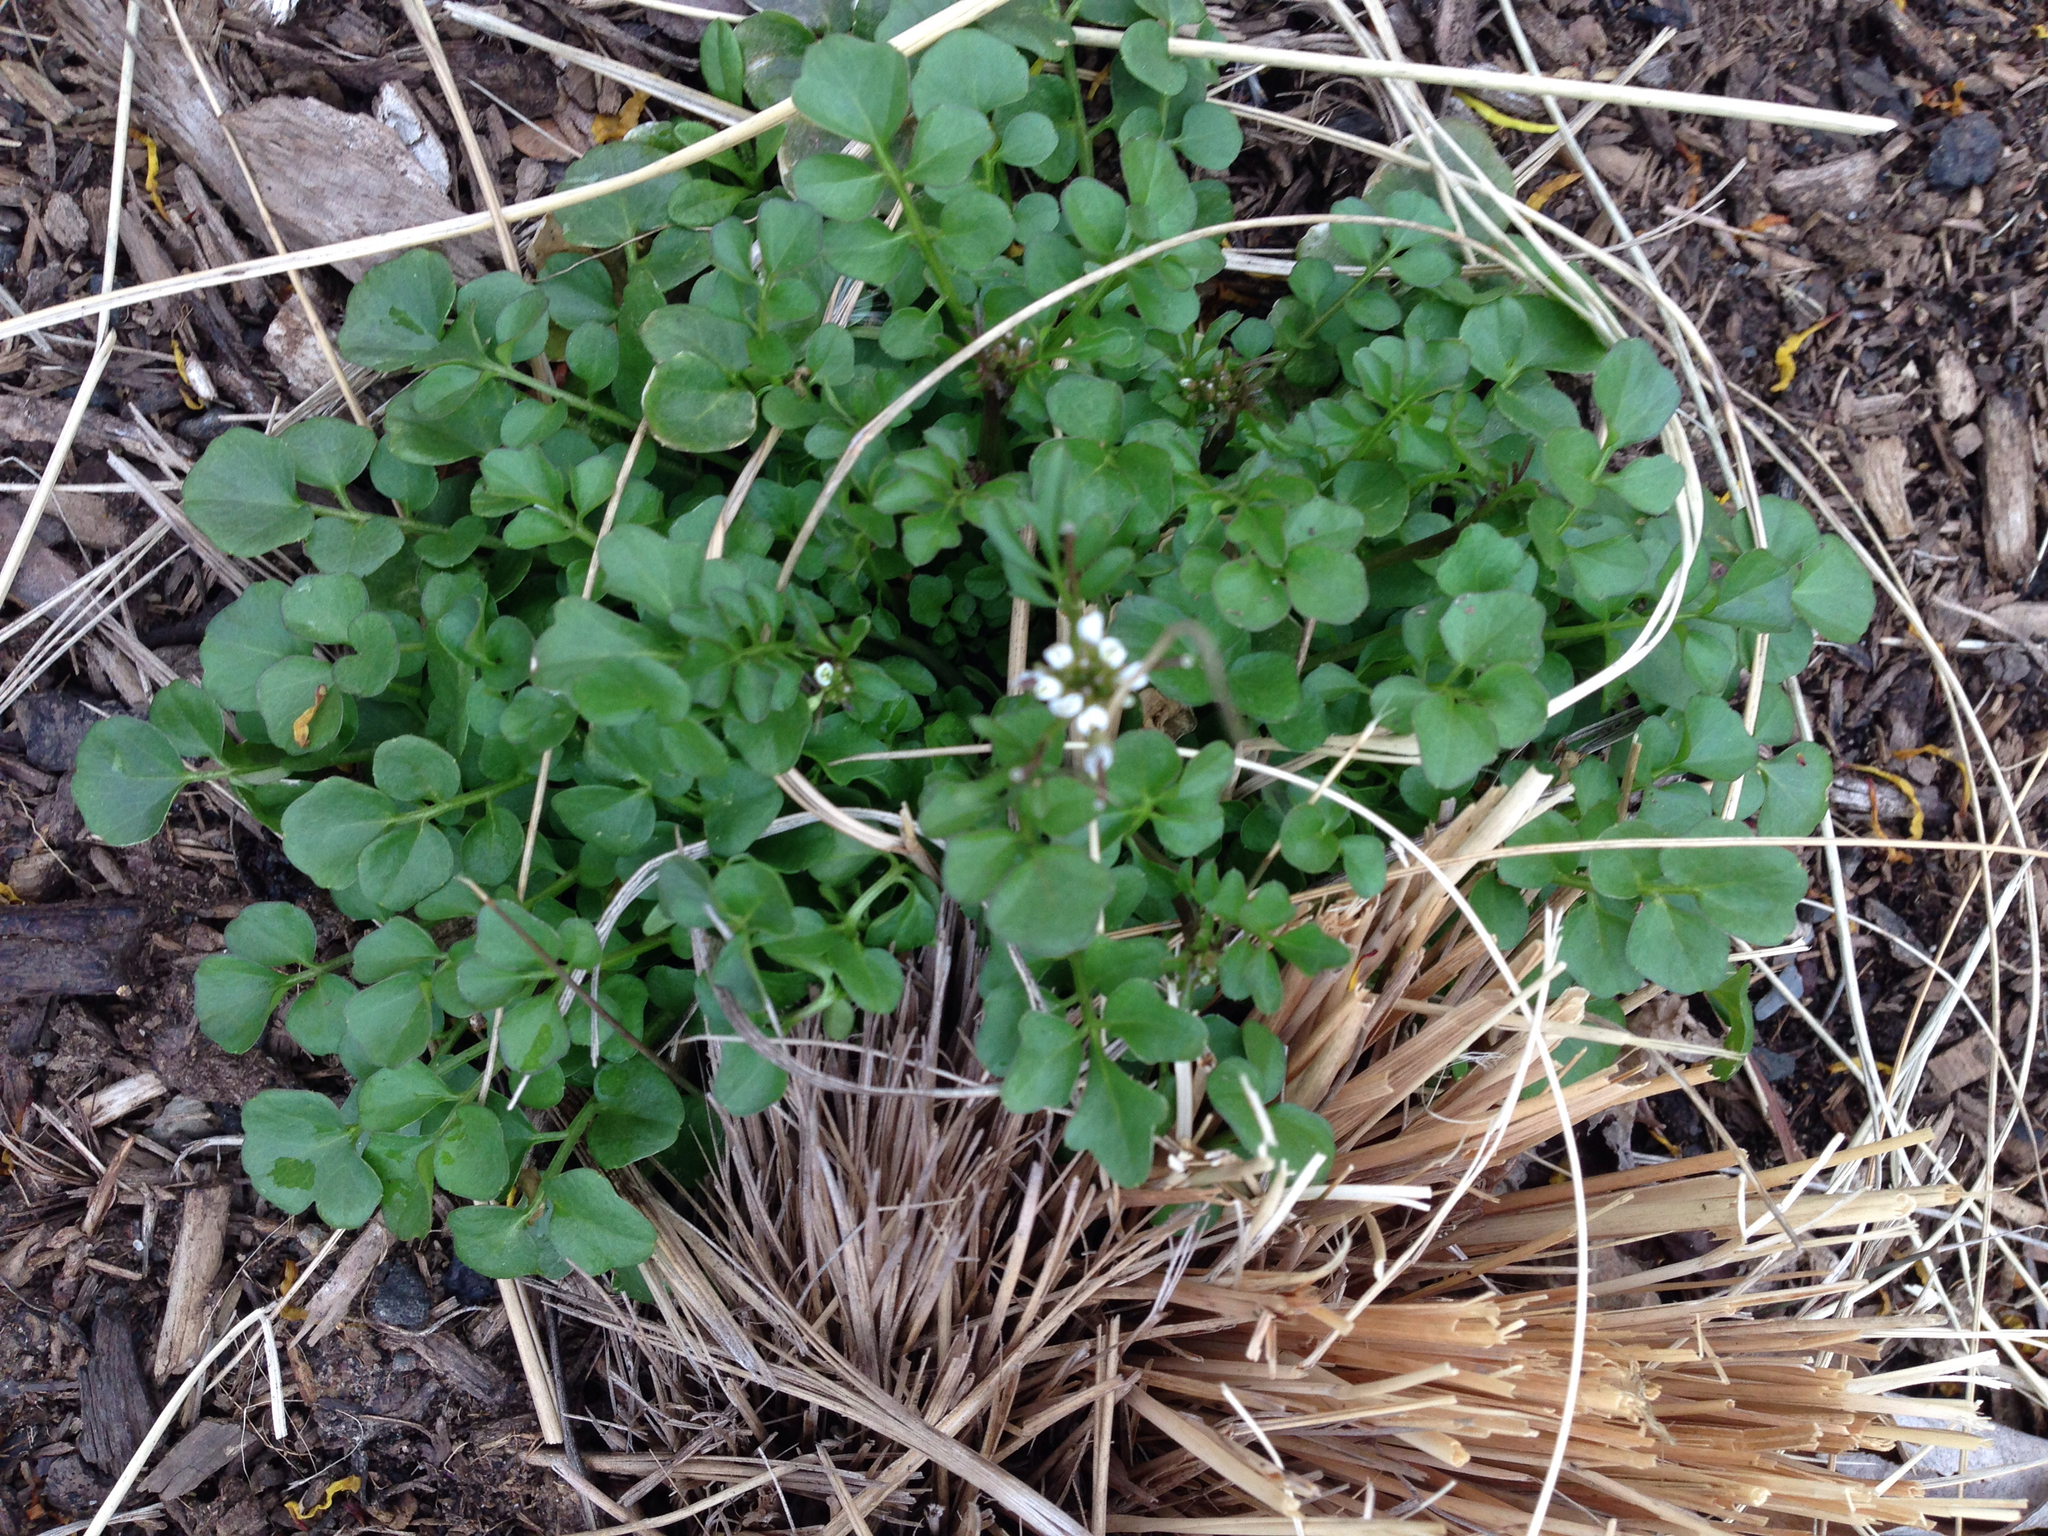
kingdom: Plantae
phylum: Tracheophyta
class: Magnoliopsida
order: Brassicales
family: Brassicaceae
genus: Cardamine
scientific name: Cardamine hirsuta
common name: Hairy bittercress
